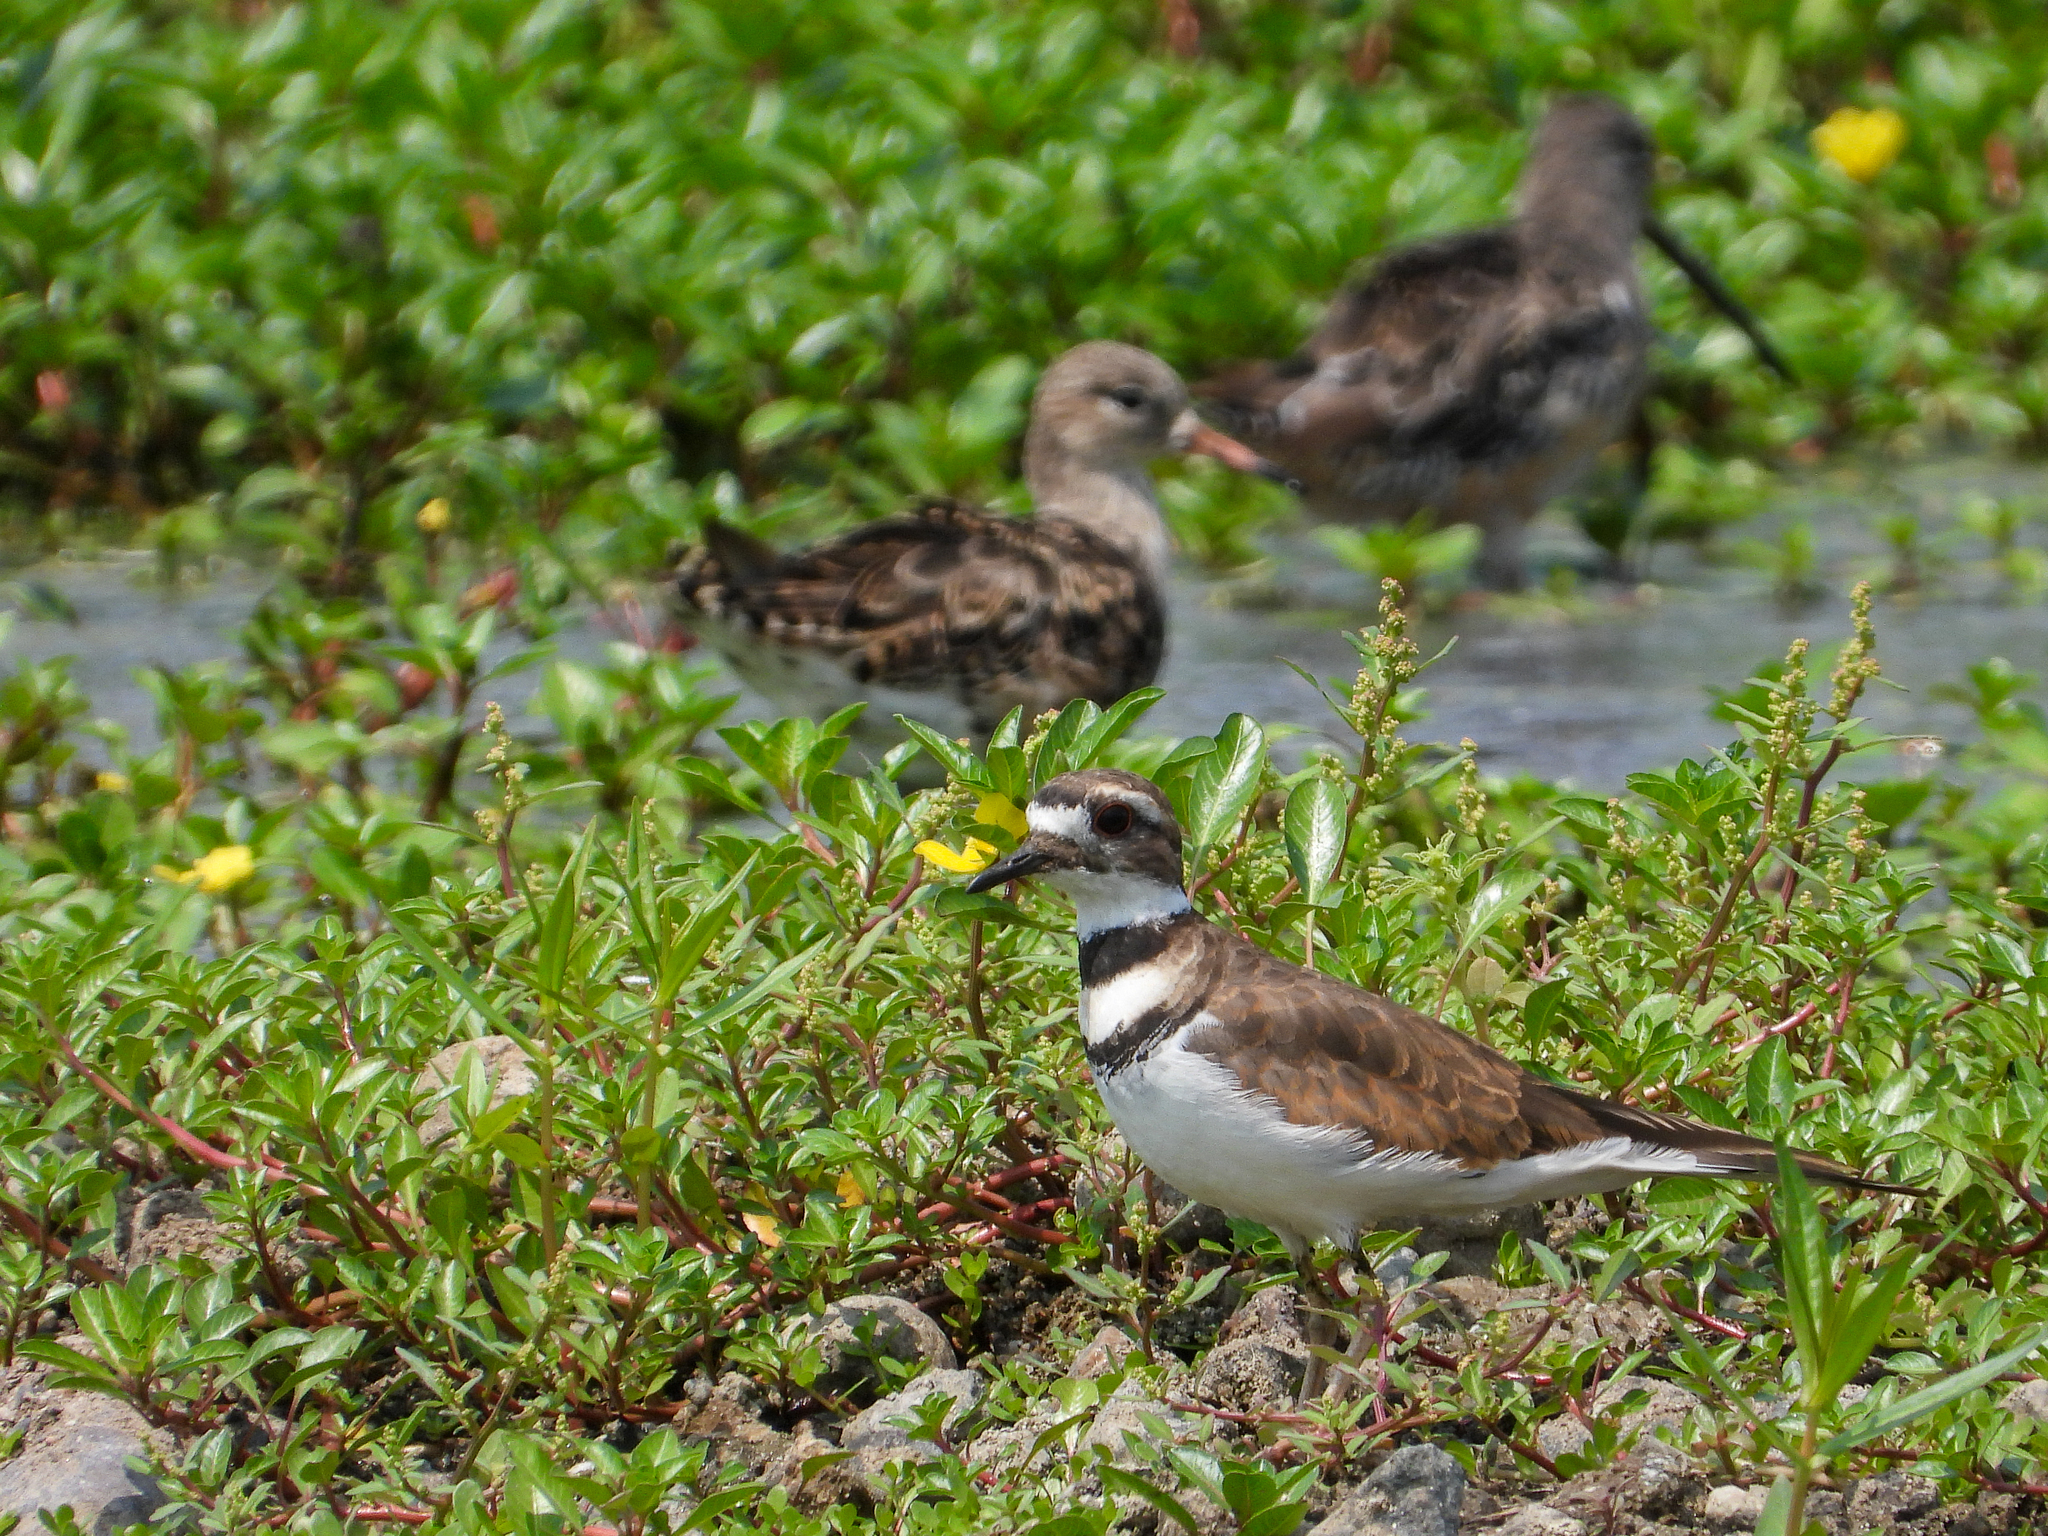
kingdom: Animalia
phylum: Chordata
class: Aves
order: Charadriiformes
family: Charadriidae
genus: Charadrius
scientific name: Charadrius vociferus
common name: Killdeer
